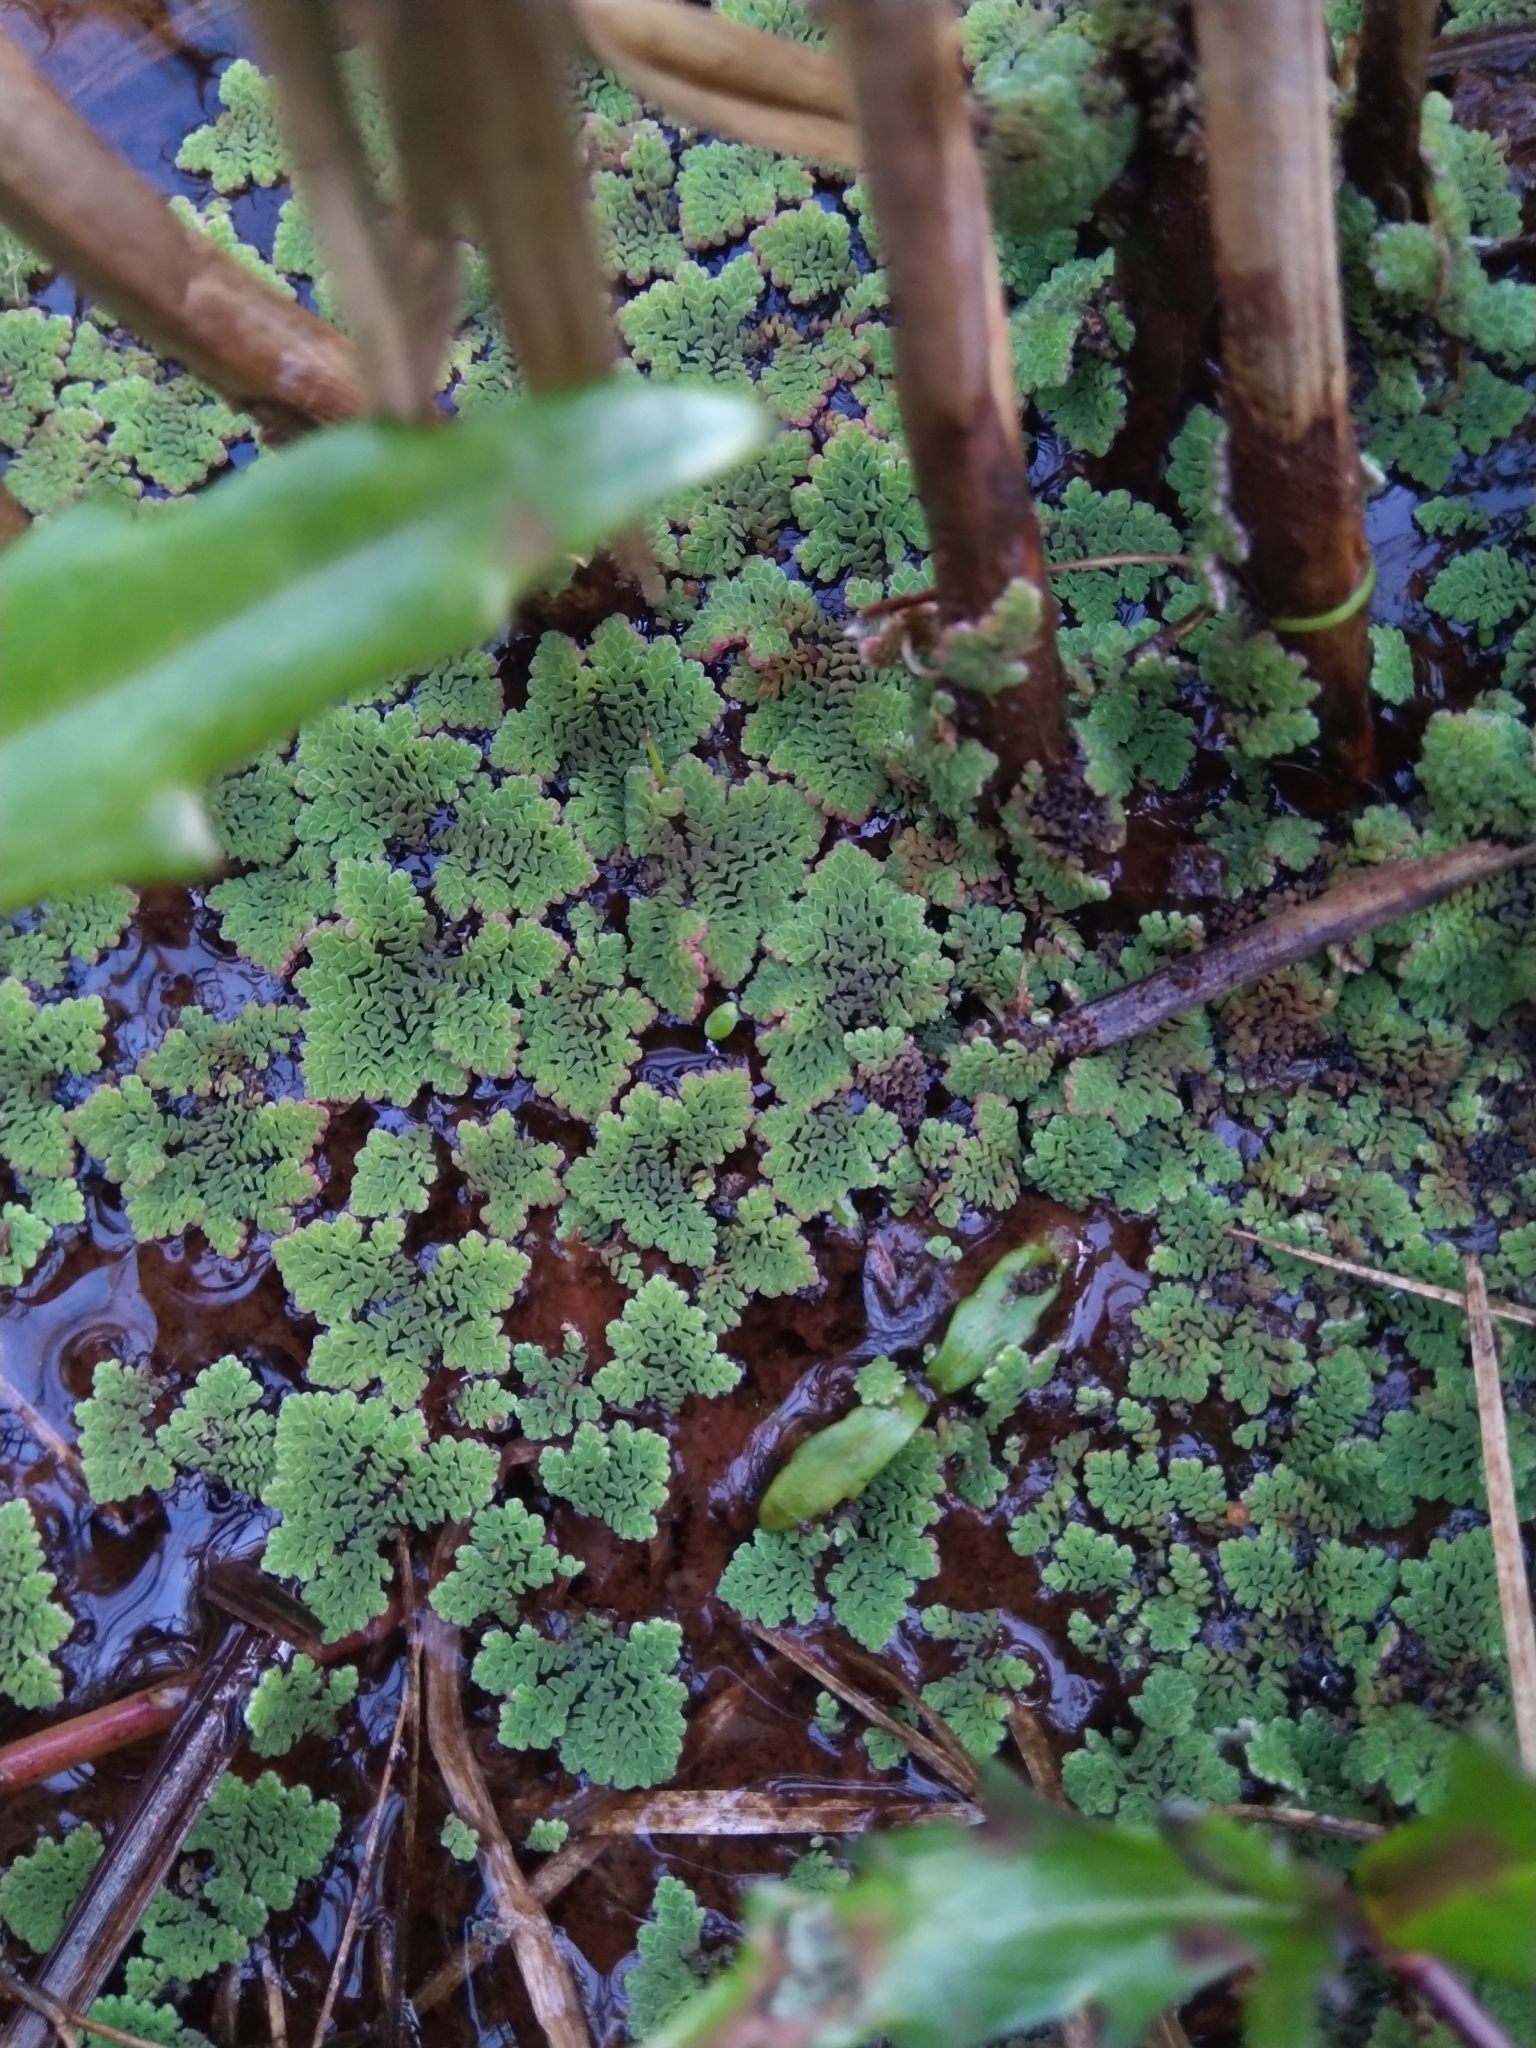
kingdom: Plantae
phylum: Tracheophyta
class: Polypodiopsida
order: Salviniales
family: Salviniaceae
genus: Azolla
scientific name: Azolla pinnata
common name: Ferny azolla
